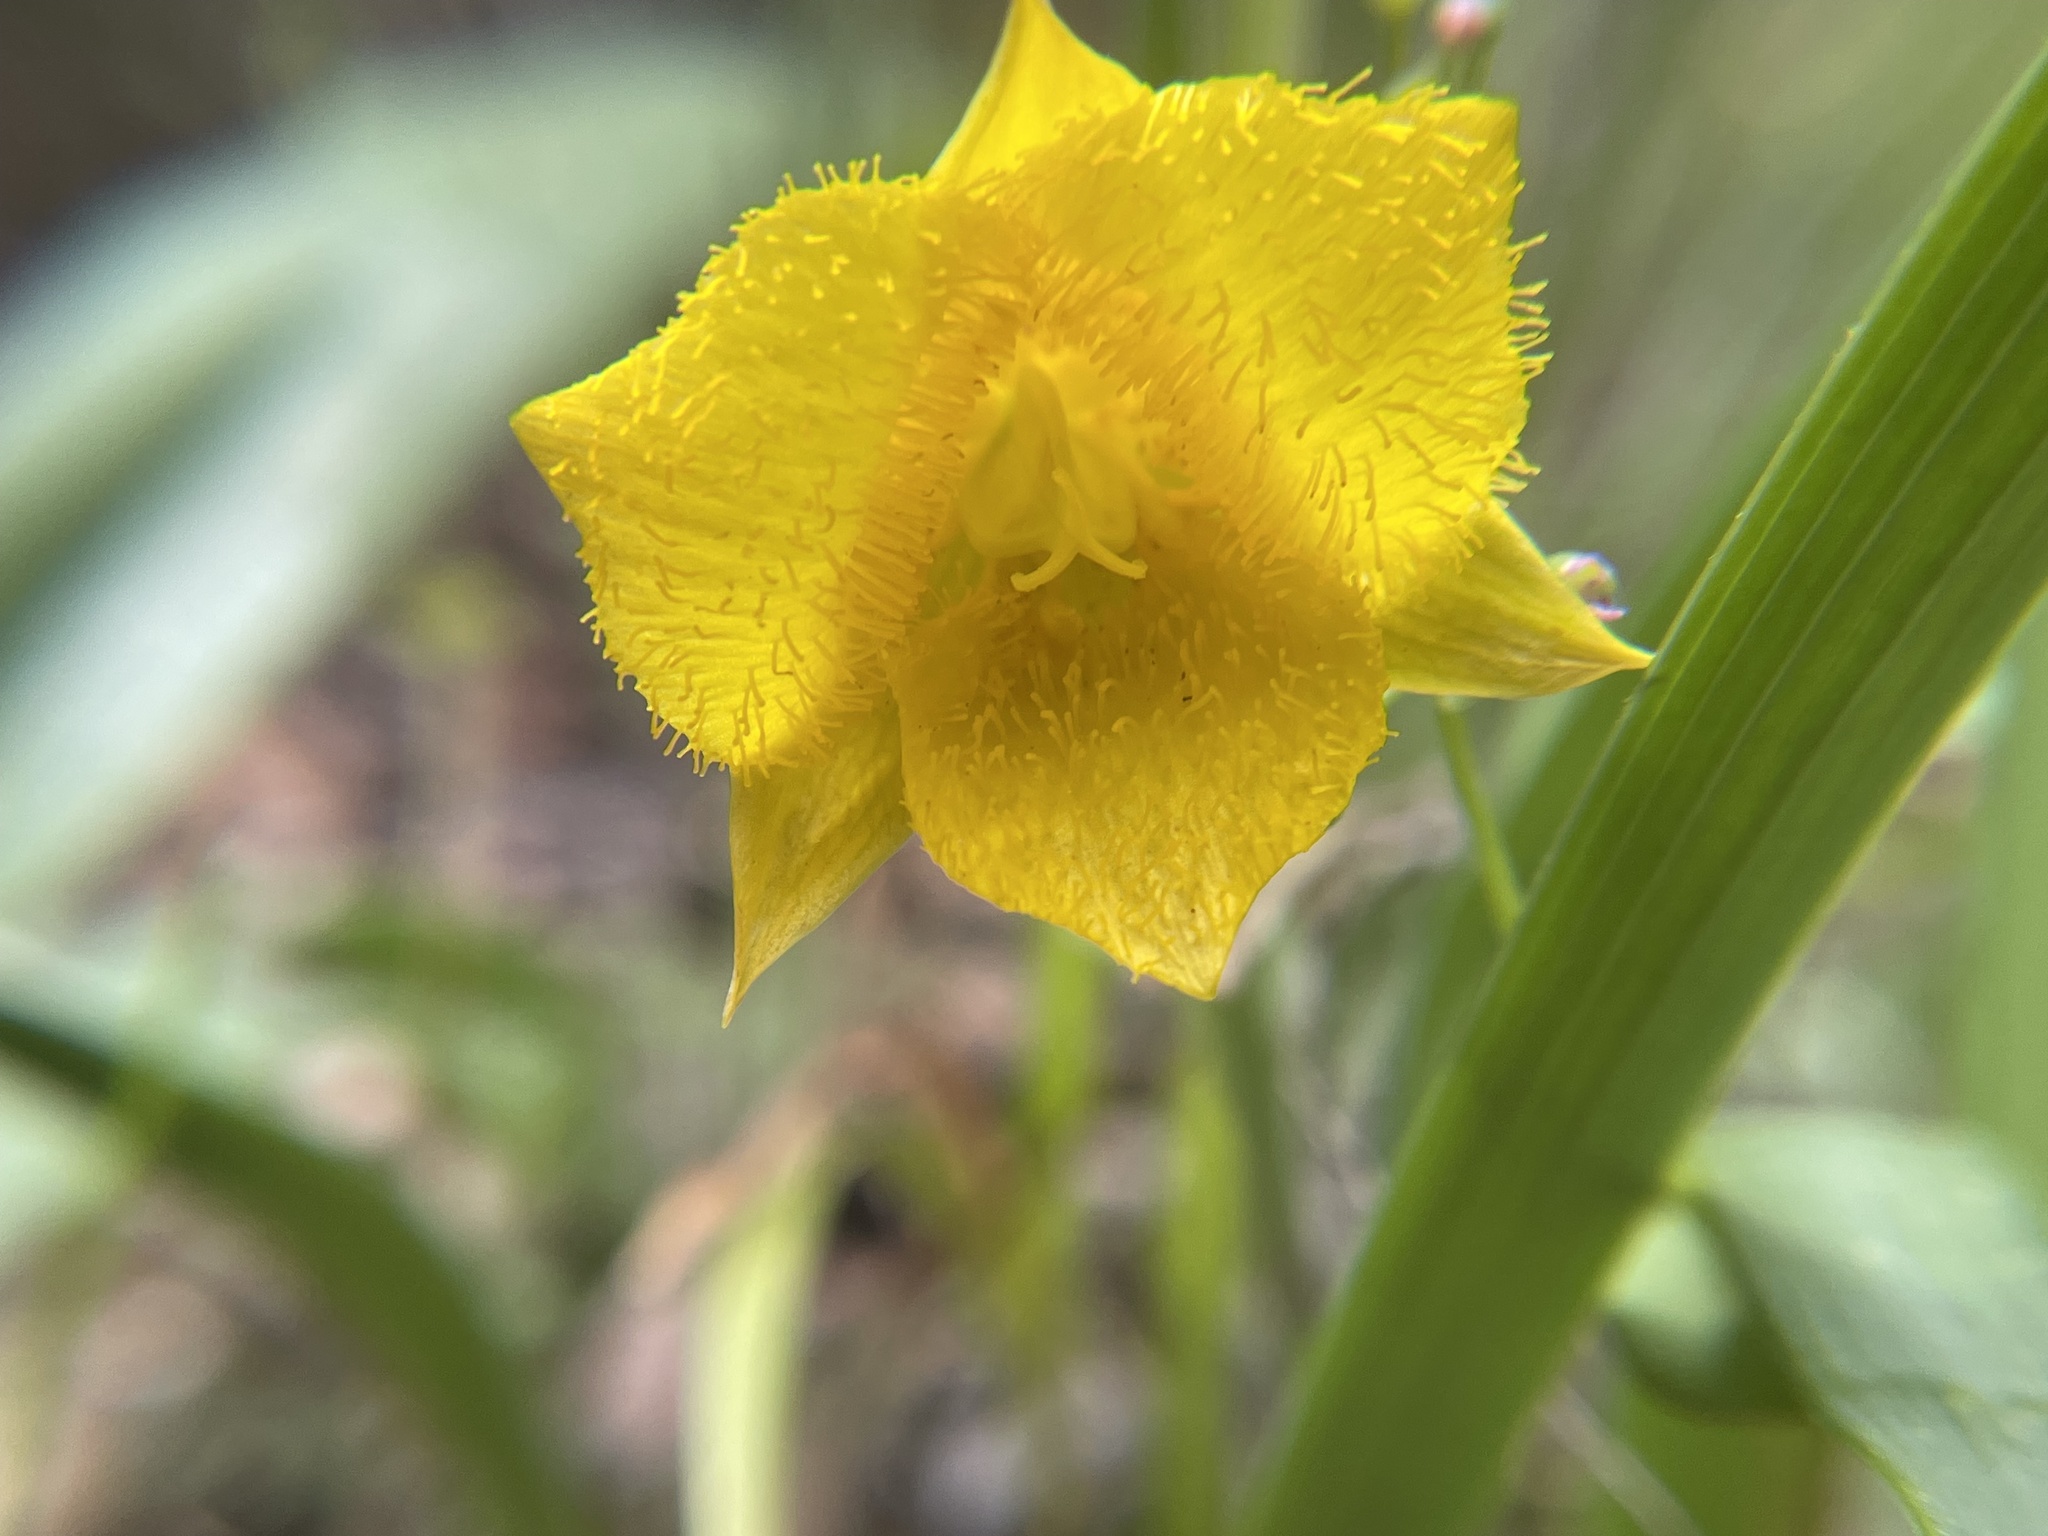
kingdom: Plantae
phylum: Tracheophyta
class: Liliopsida
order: Liliales
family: Liliaceae
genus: Calochortus
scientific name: Calochortus monophyllus
